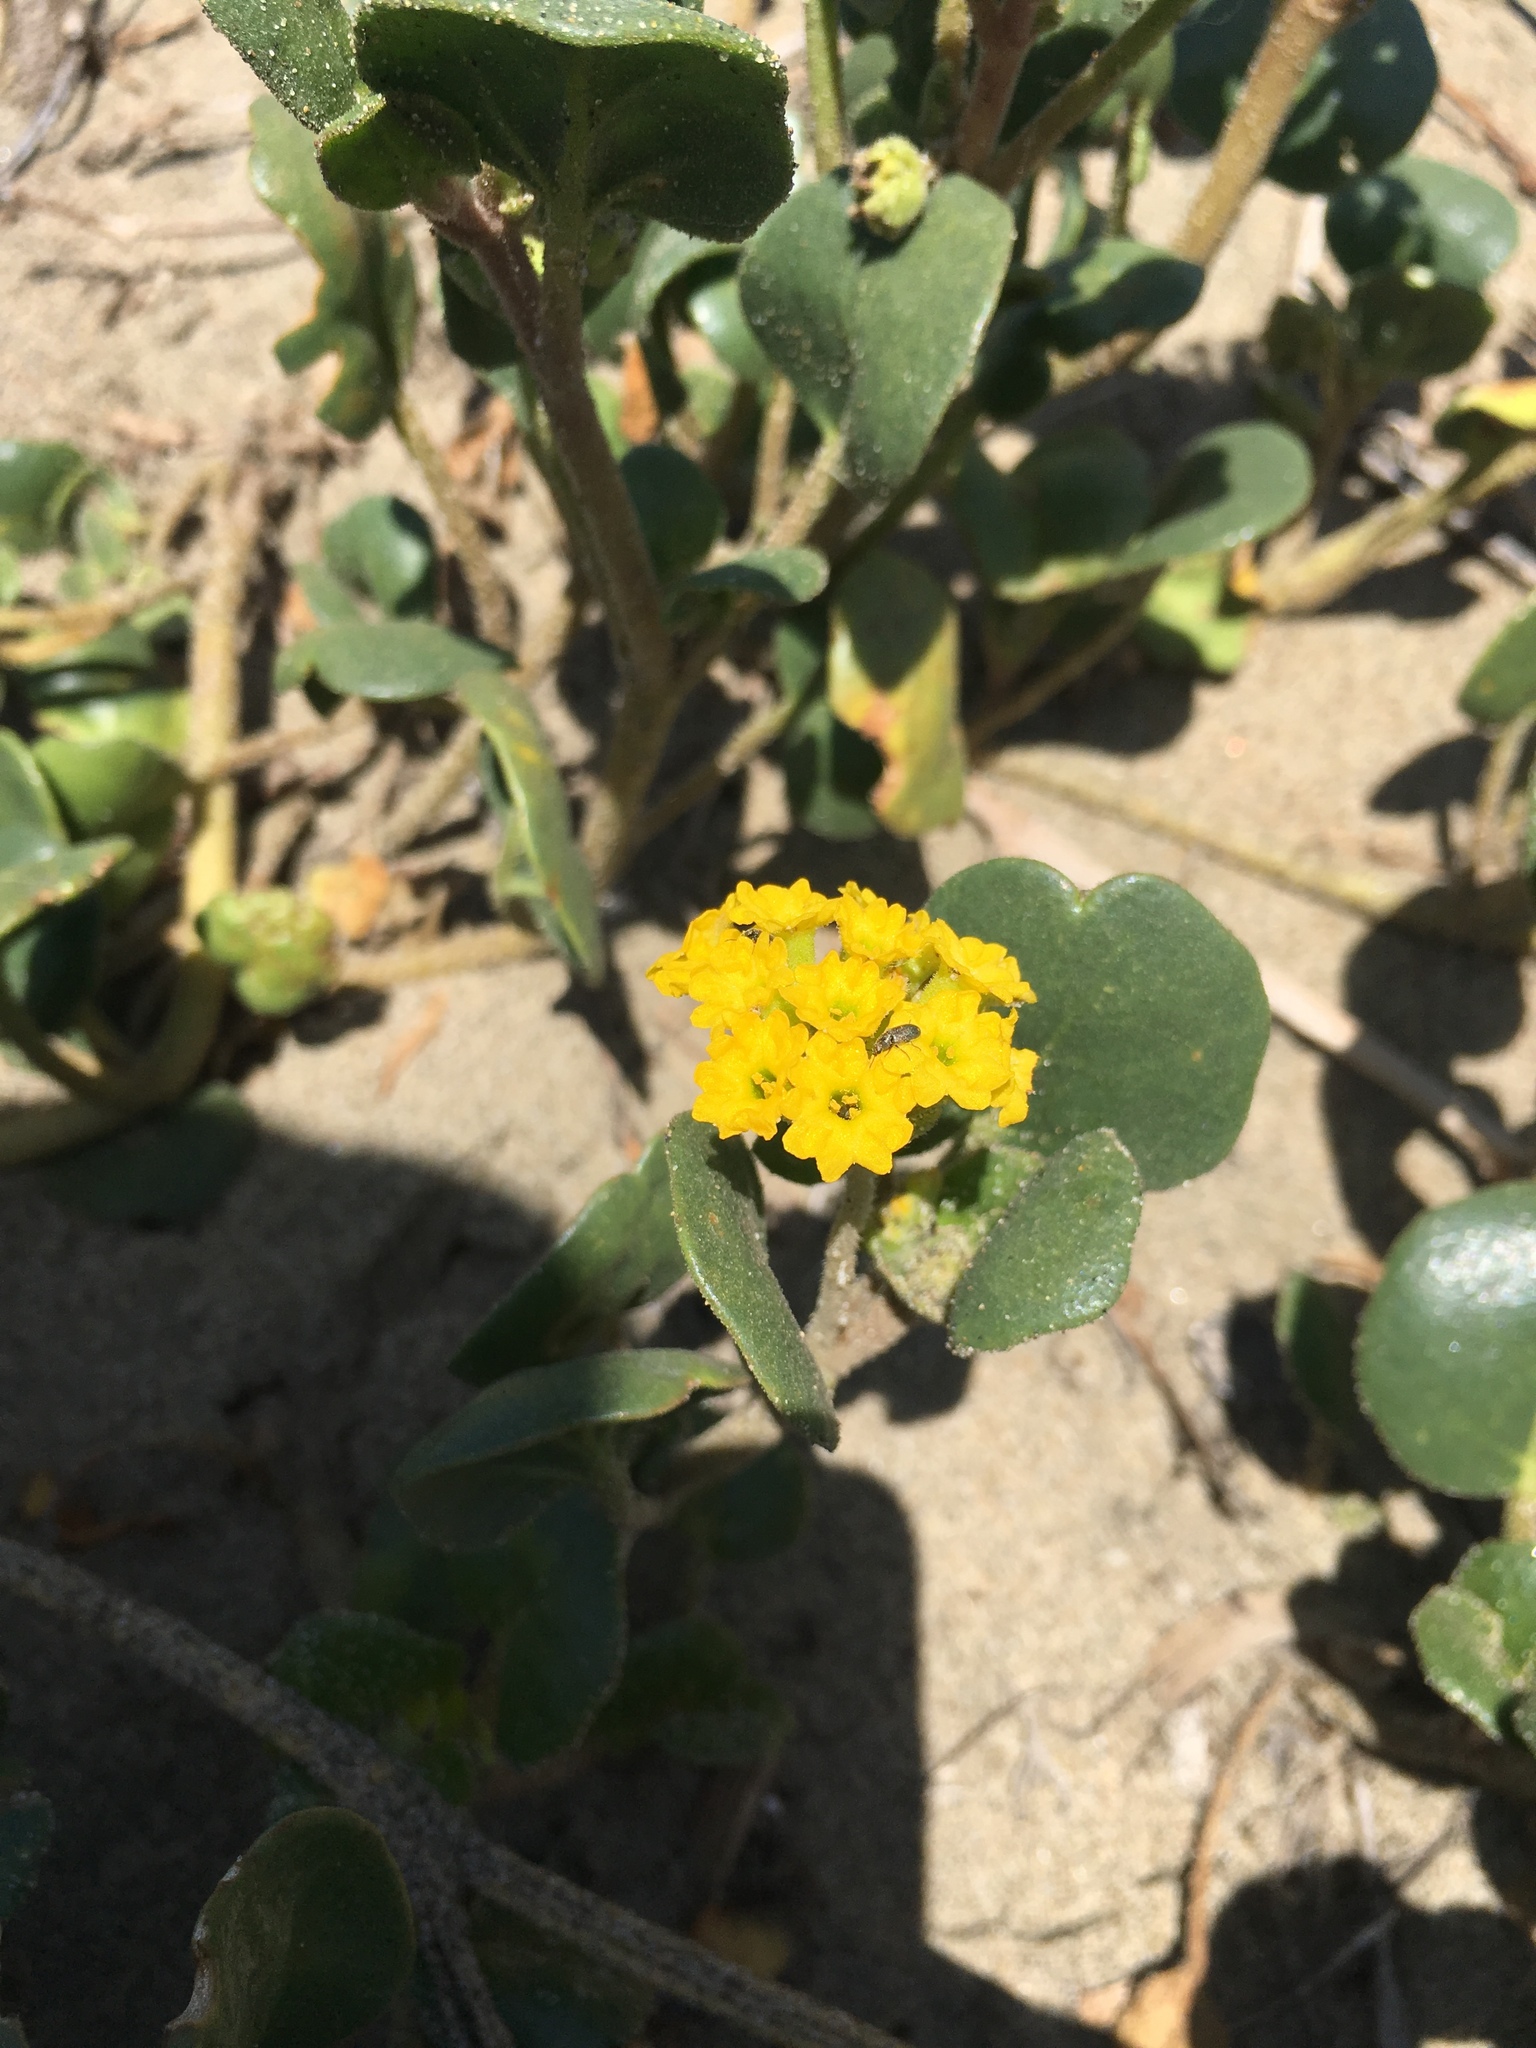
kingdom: Plantae
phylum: Tracheophyta
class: Magnoliopsida
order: Caryophyllales
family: Nyctaginaceae
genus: Abronia
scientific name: Abronia latifolia
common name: Yellow sand-verbena
